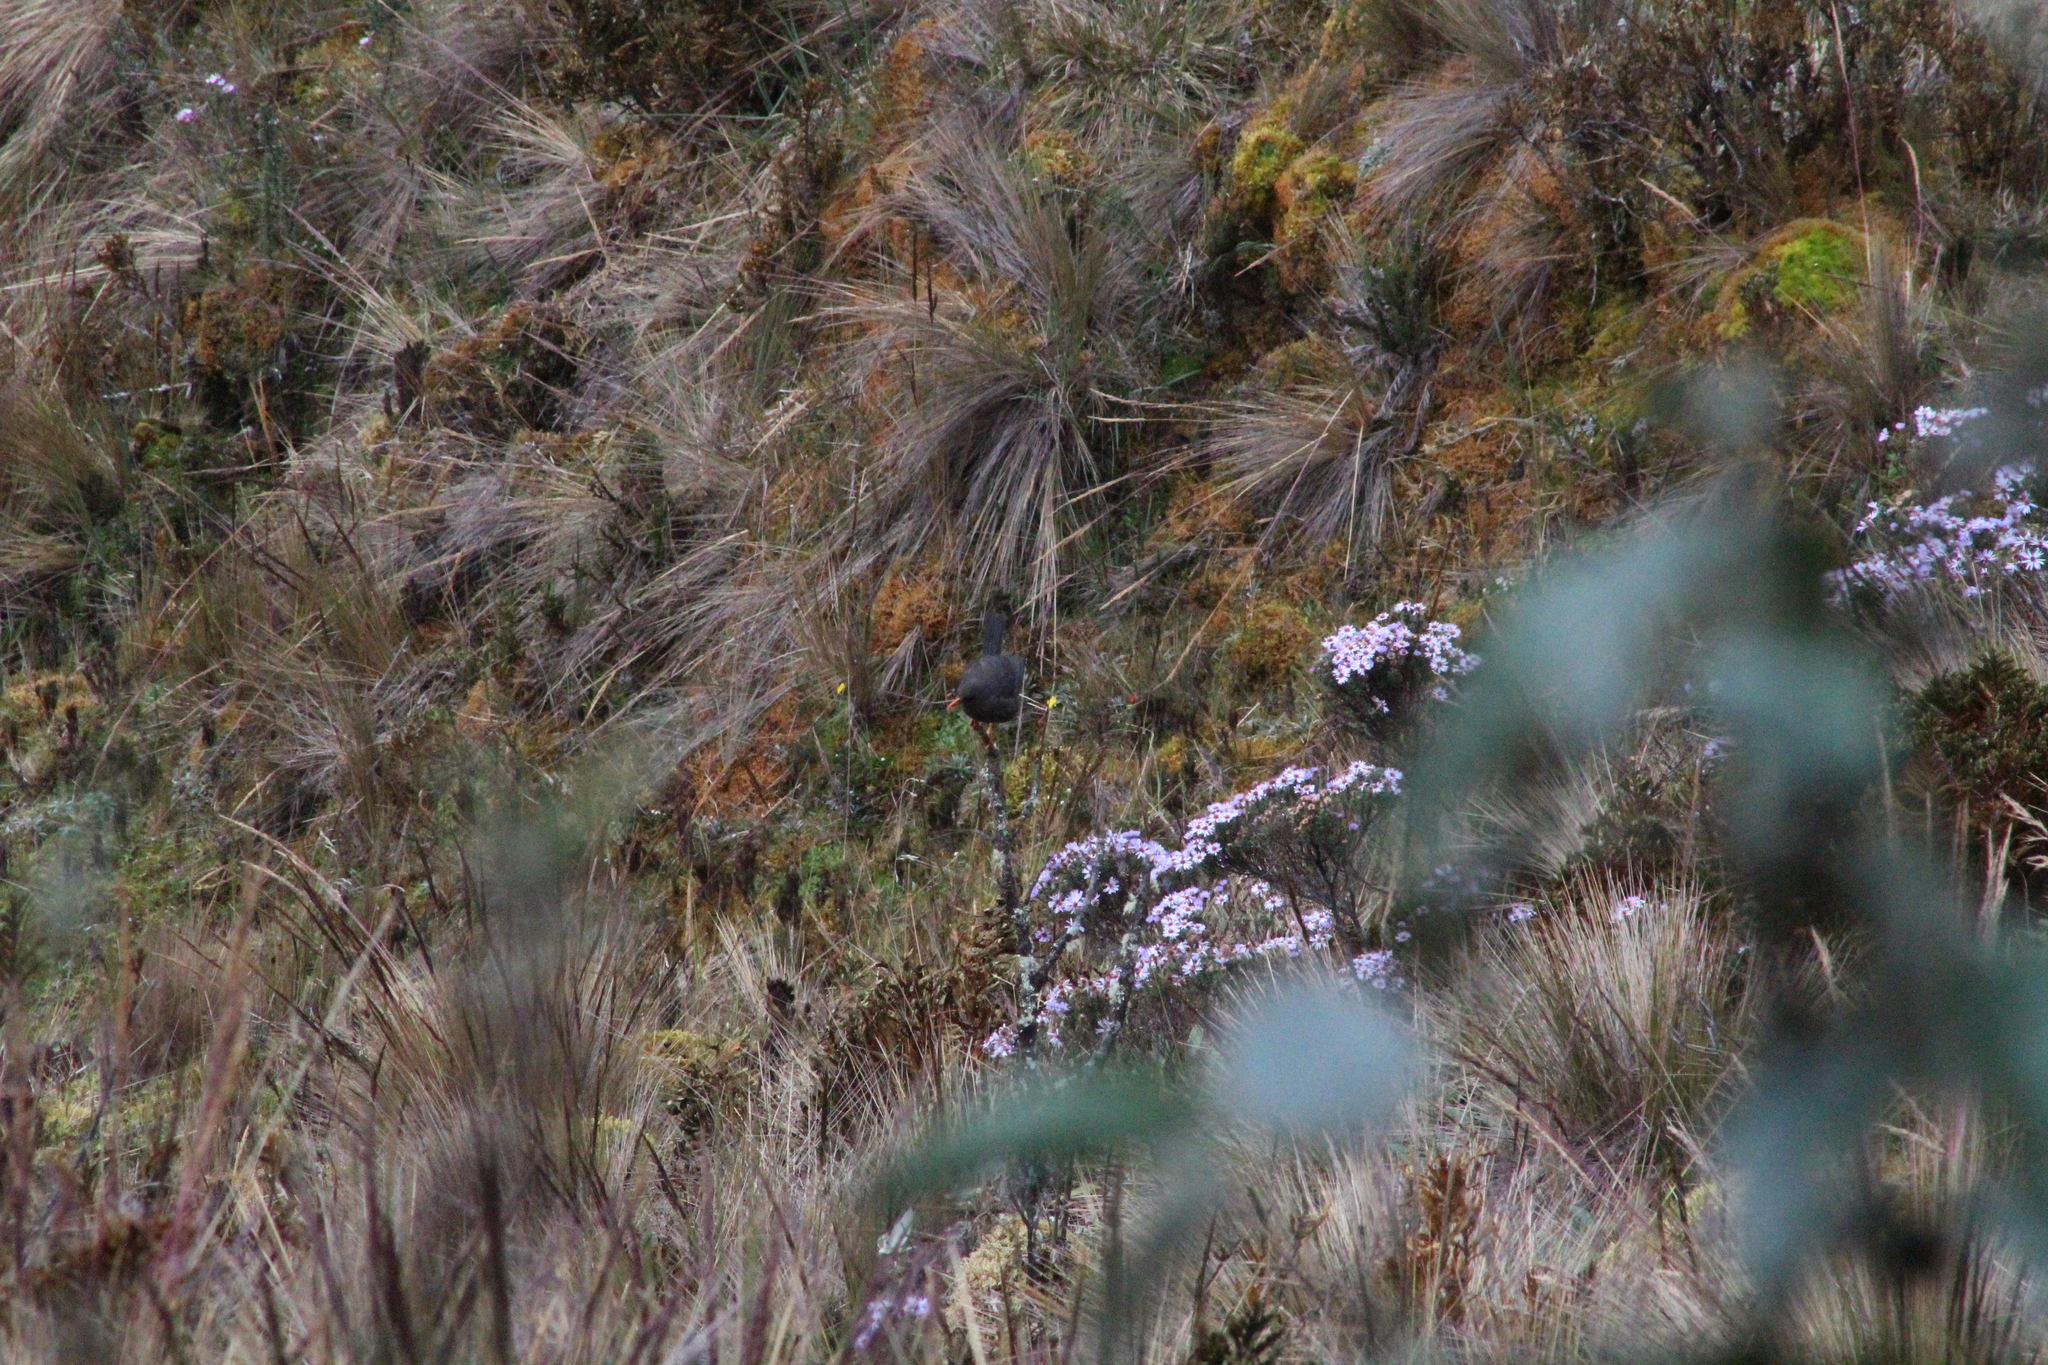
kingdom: Animalia
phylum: Chordata
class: Aves
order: Passeriformes
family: Turdidae
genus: Turdus
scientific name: Turdus fuscater
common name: Great thrush
